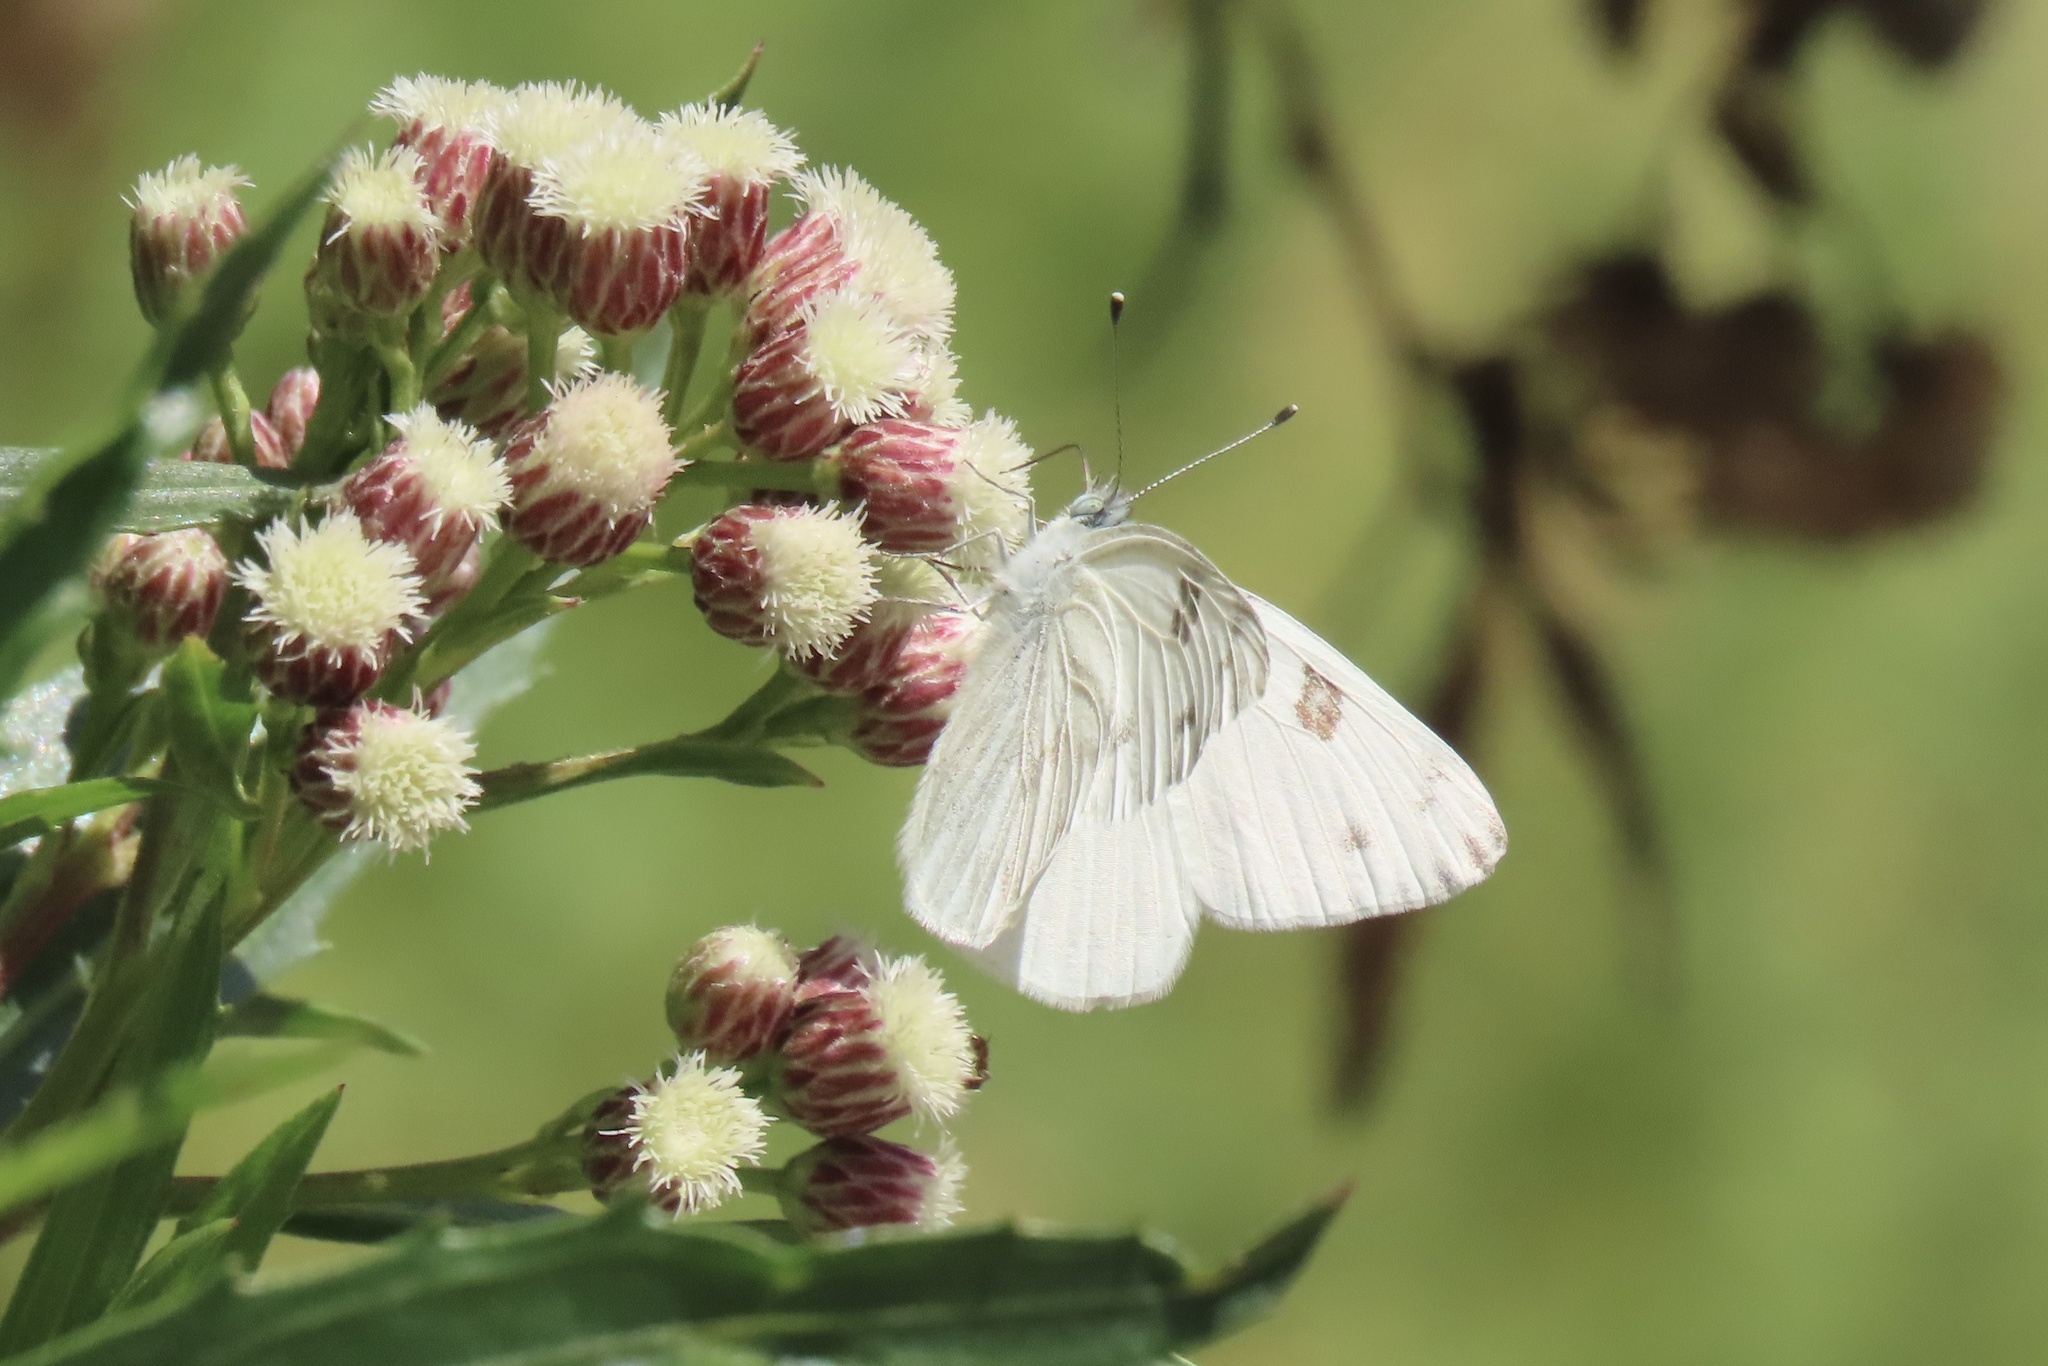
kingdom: Animalia
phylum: Arthropoda
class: Insecta
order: Lepidoptera
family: Pieridae
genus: Pontia
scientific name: Pontia protodice
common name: Checkered white
